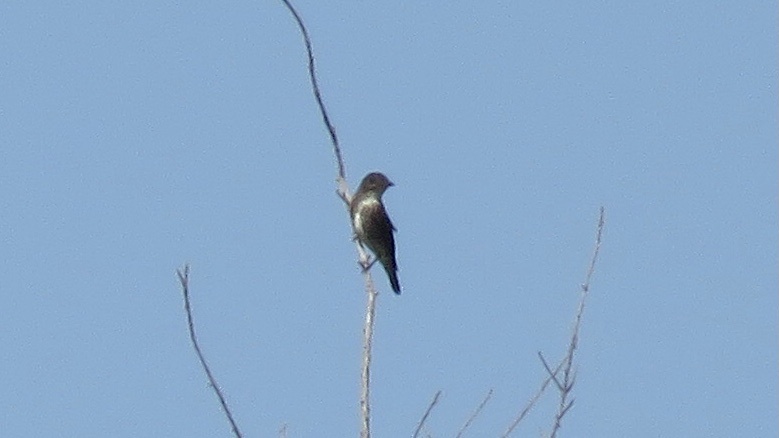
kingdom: Animalia
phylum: Chordata
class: Aves
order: Passeriformes
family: Tyrannidae
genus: Contopus
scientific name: Contopus cooperi
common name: Olive-sided flycatcher
